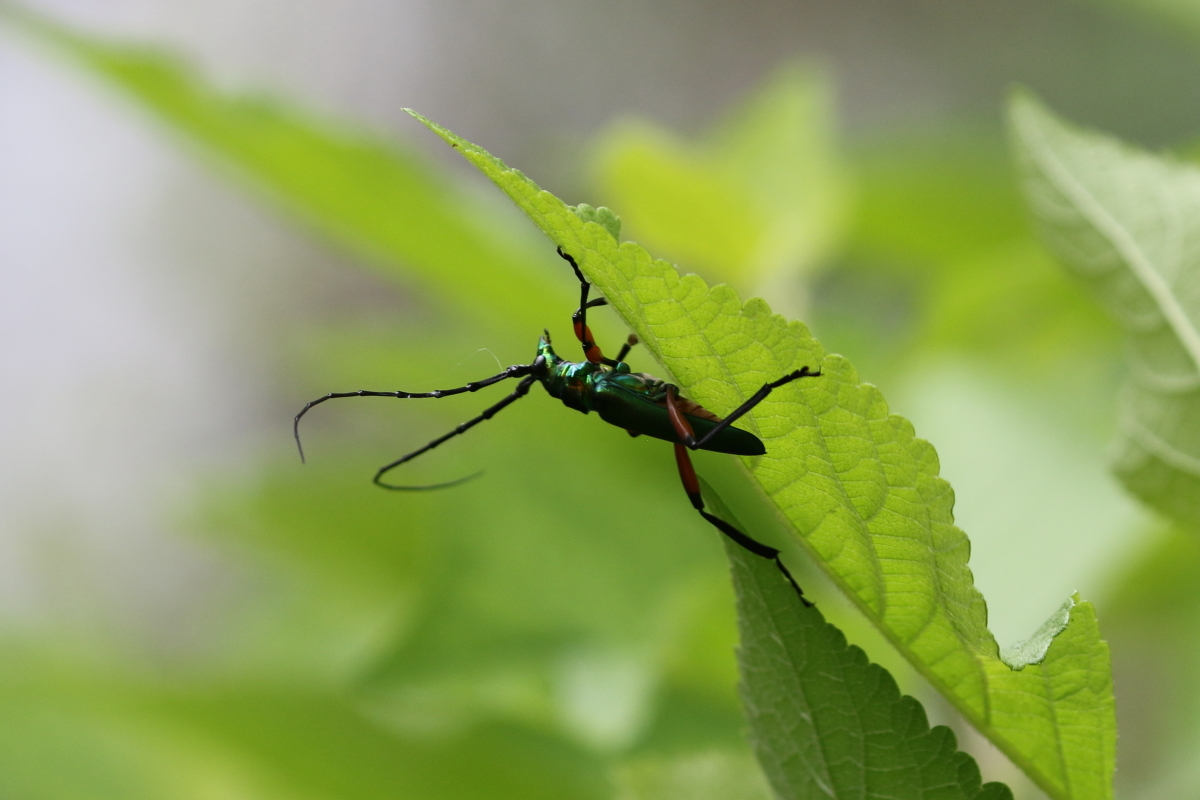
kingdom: Animalia
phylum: Arthropoda
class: Insecta
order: Coleoptera
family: Cerambycidae
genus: Plinthocoelium
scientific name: Plinthocoelium suaveolens
